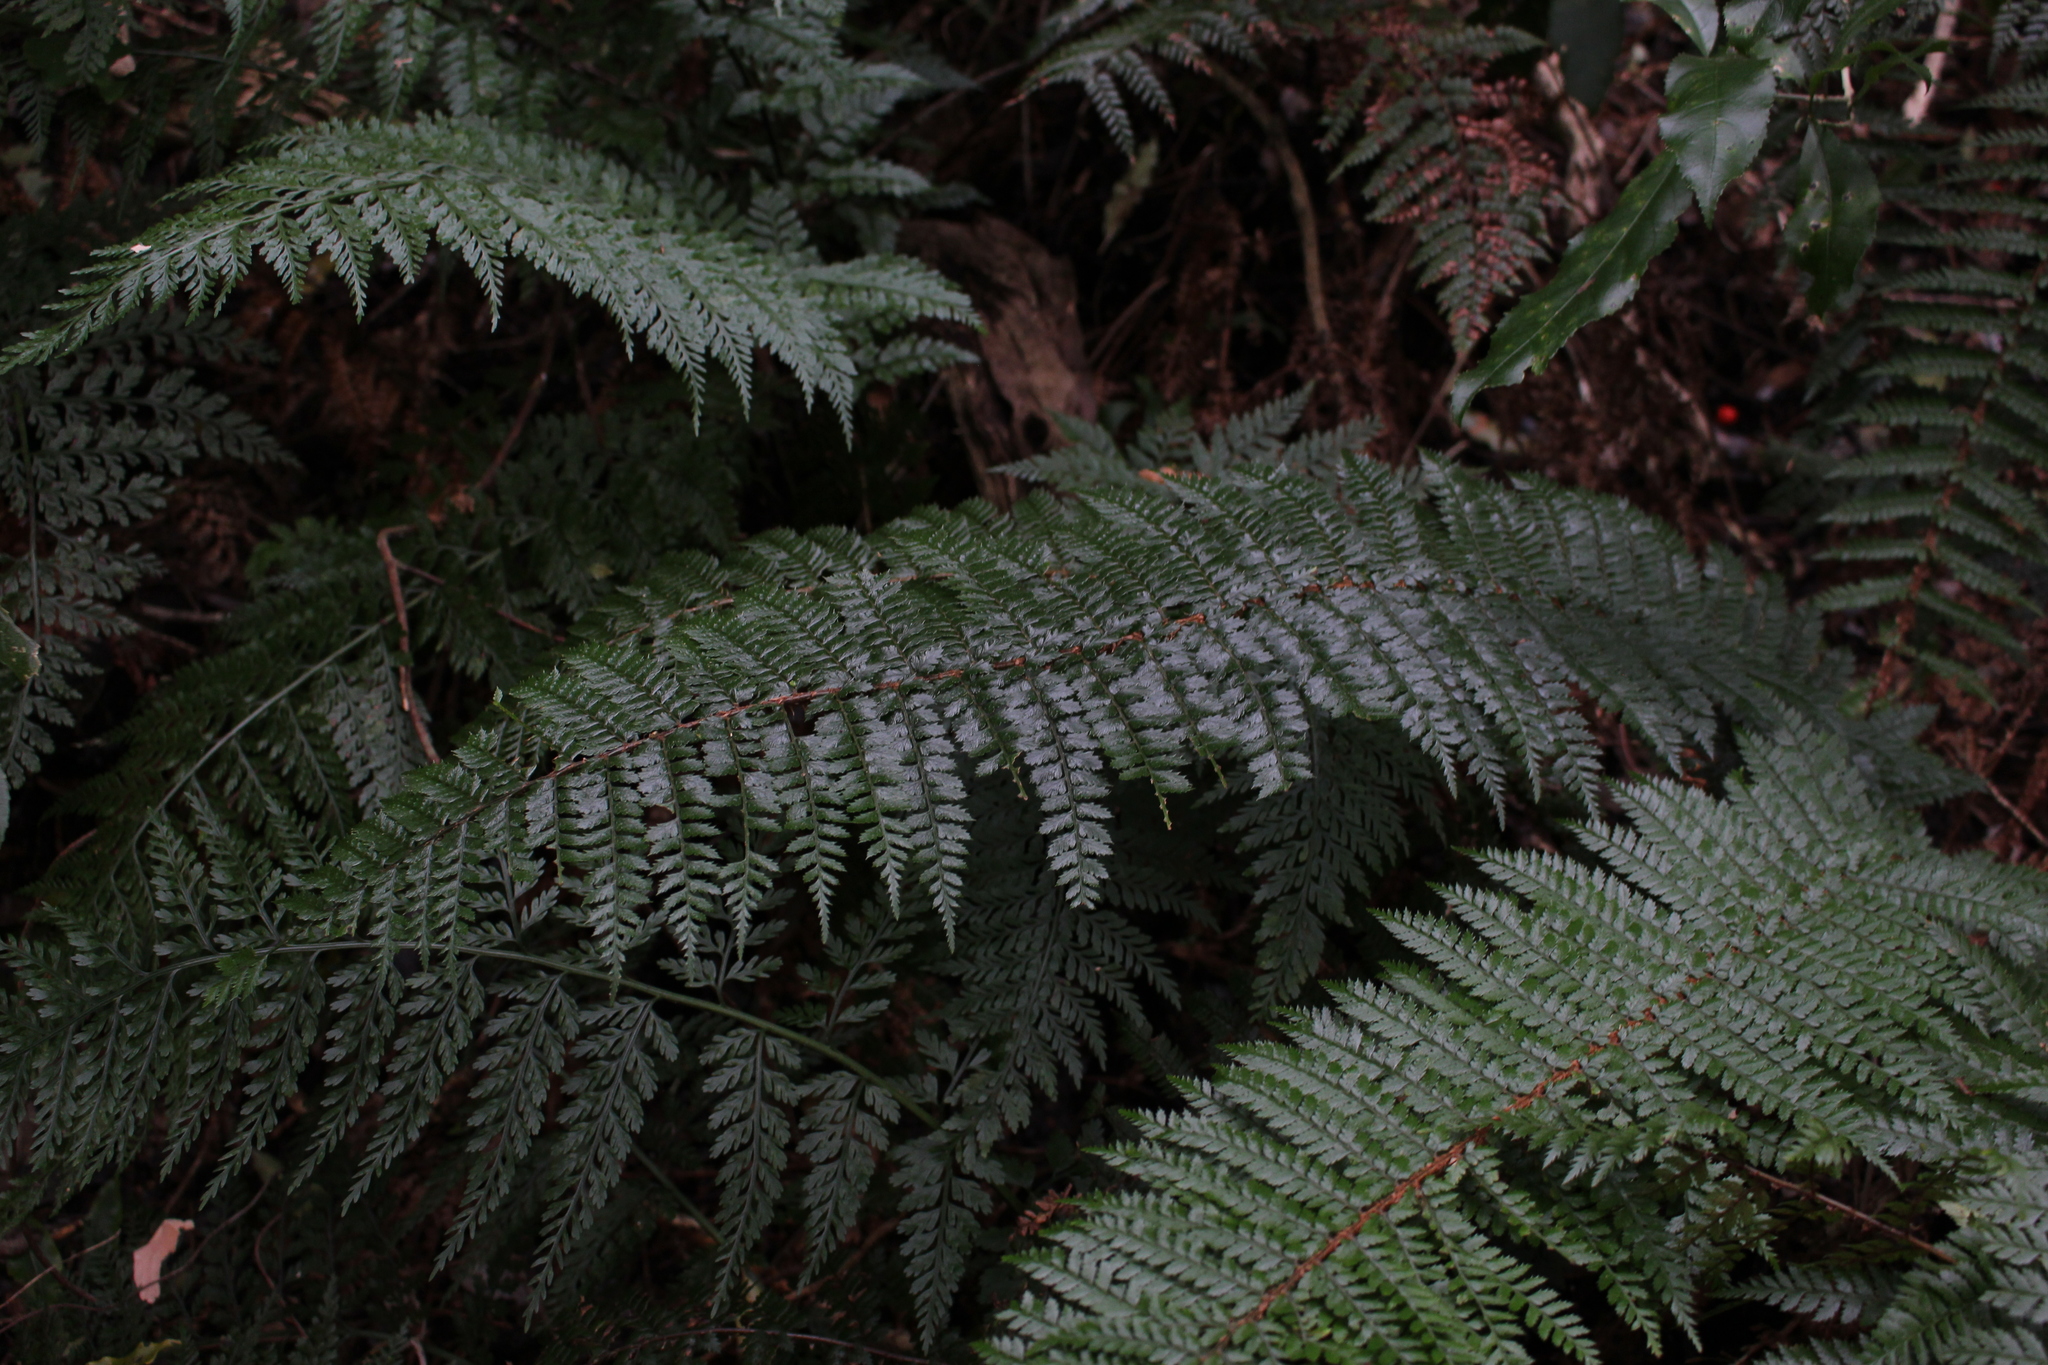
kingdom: Plantae
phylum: Tracheophyta
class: Polypodiopsida
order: Polypodiales
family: Dryopteridaceae
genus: Polystichum
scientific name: Polystichum vestitum
